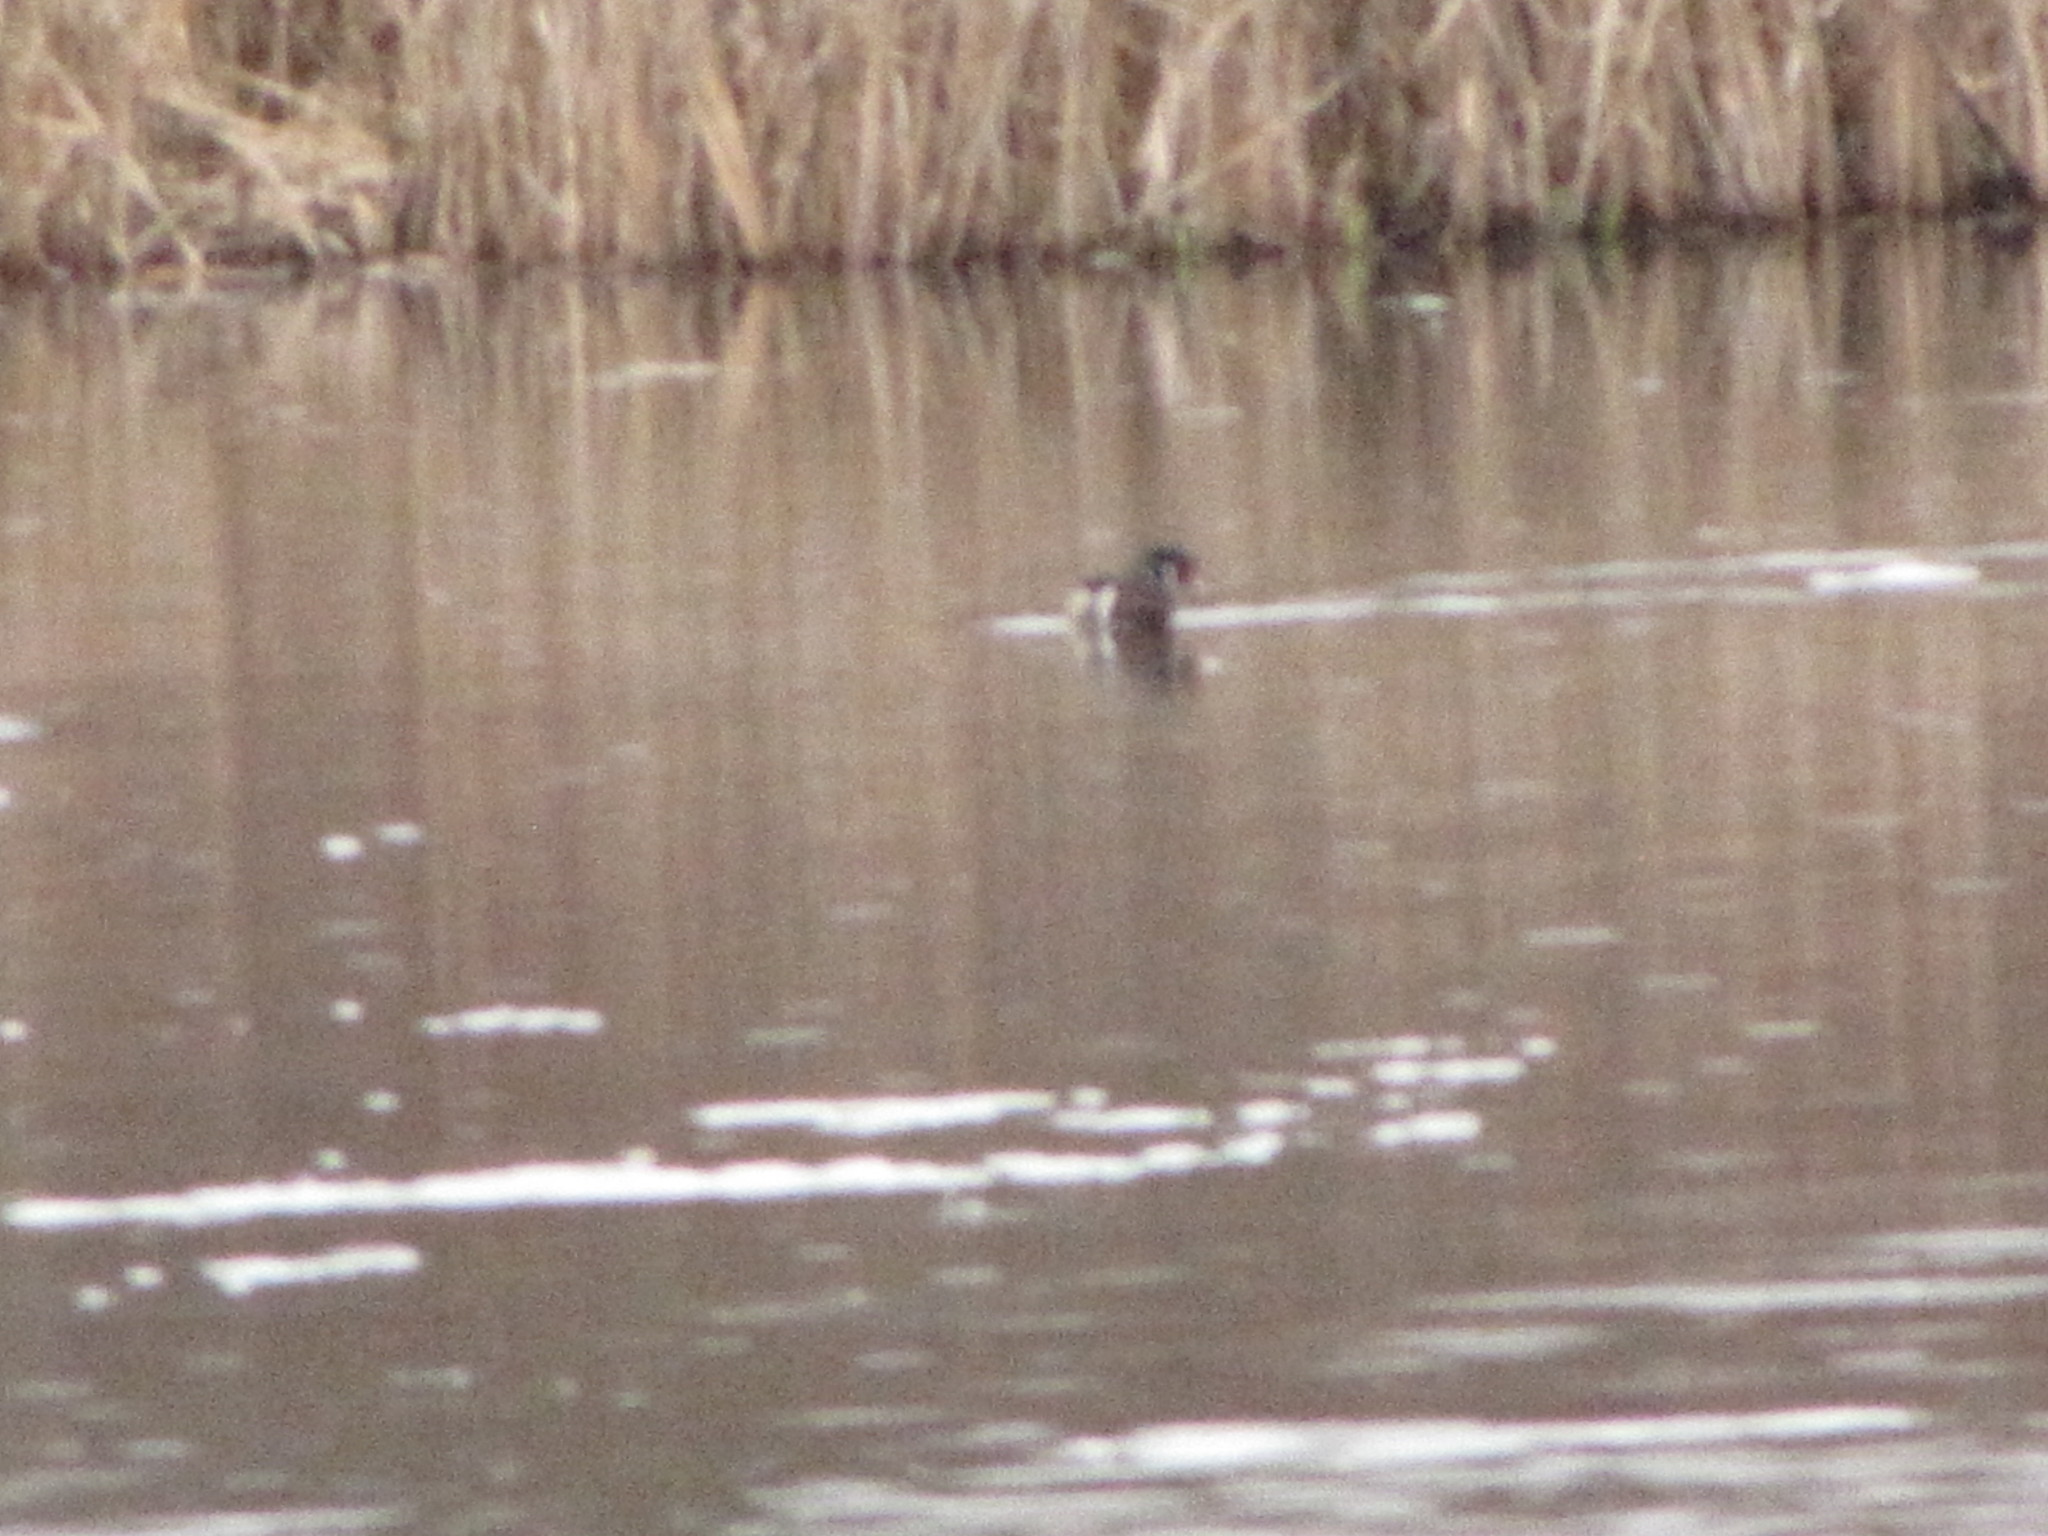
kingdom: Animalia
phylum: Chordata
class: Aves
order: Anseriformes
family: Anatidae
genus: Aix
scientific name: Aix sponsa
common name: Wood duck
